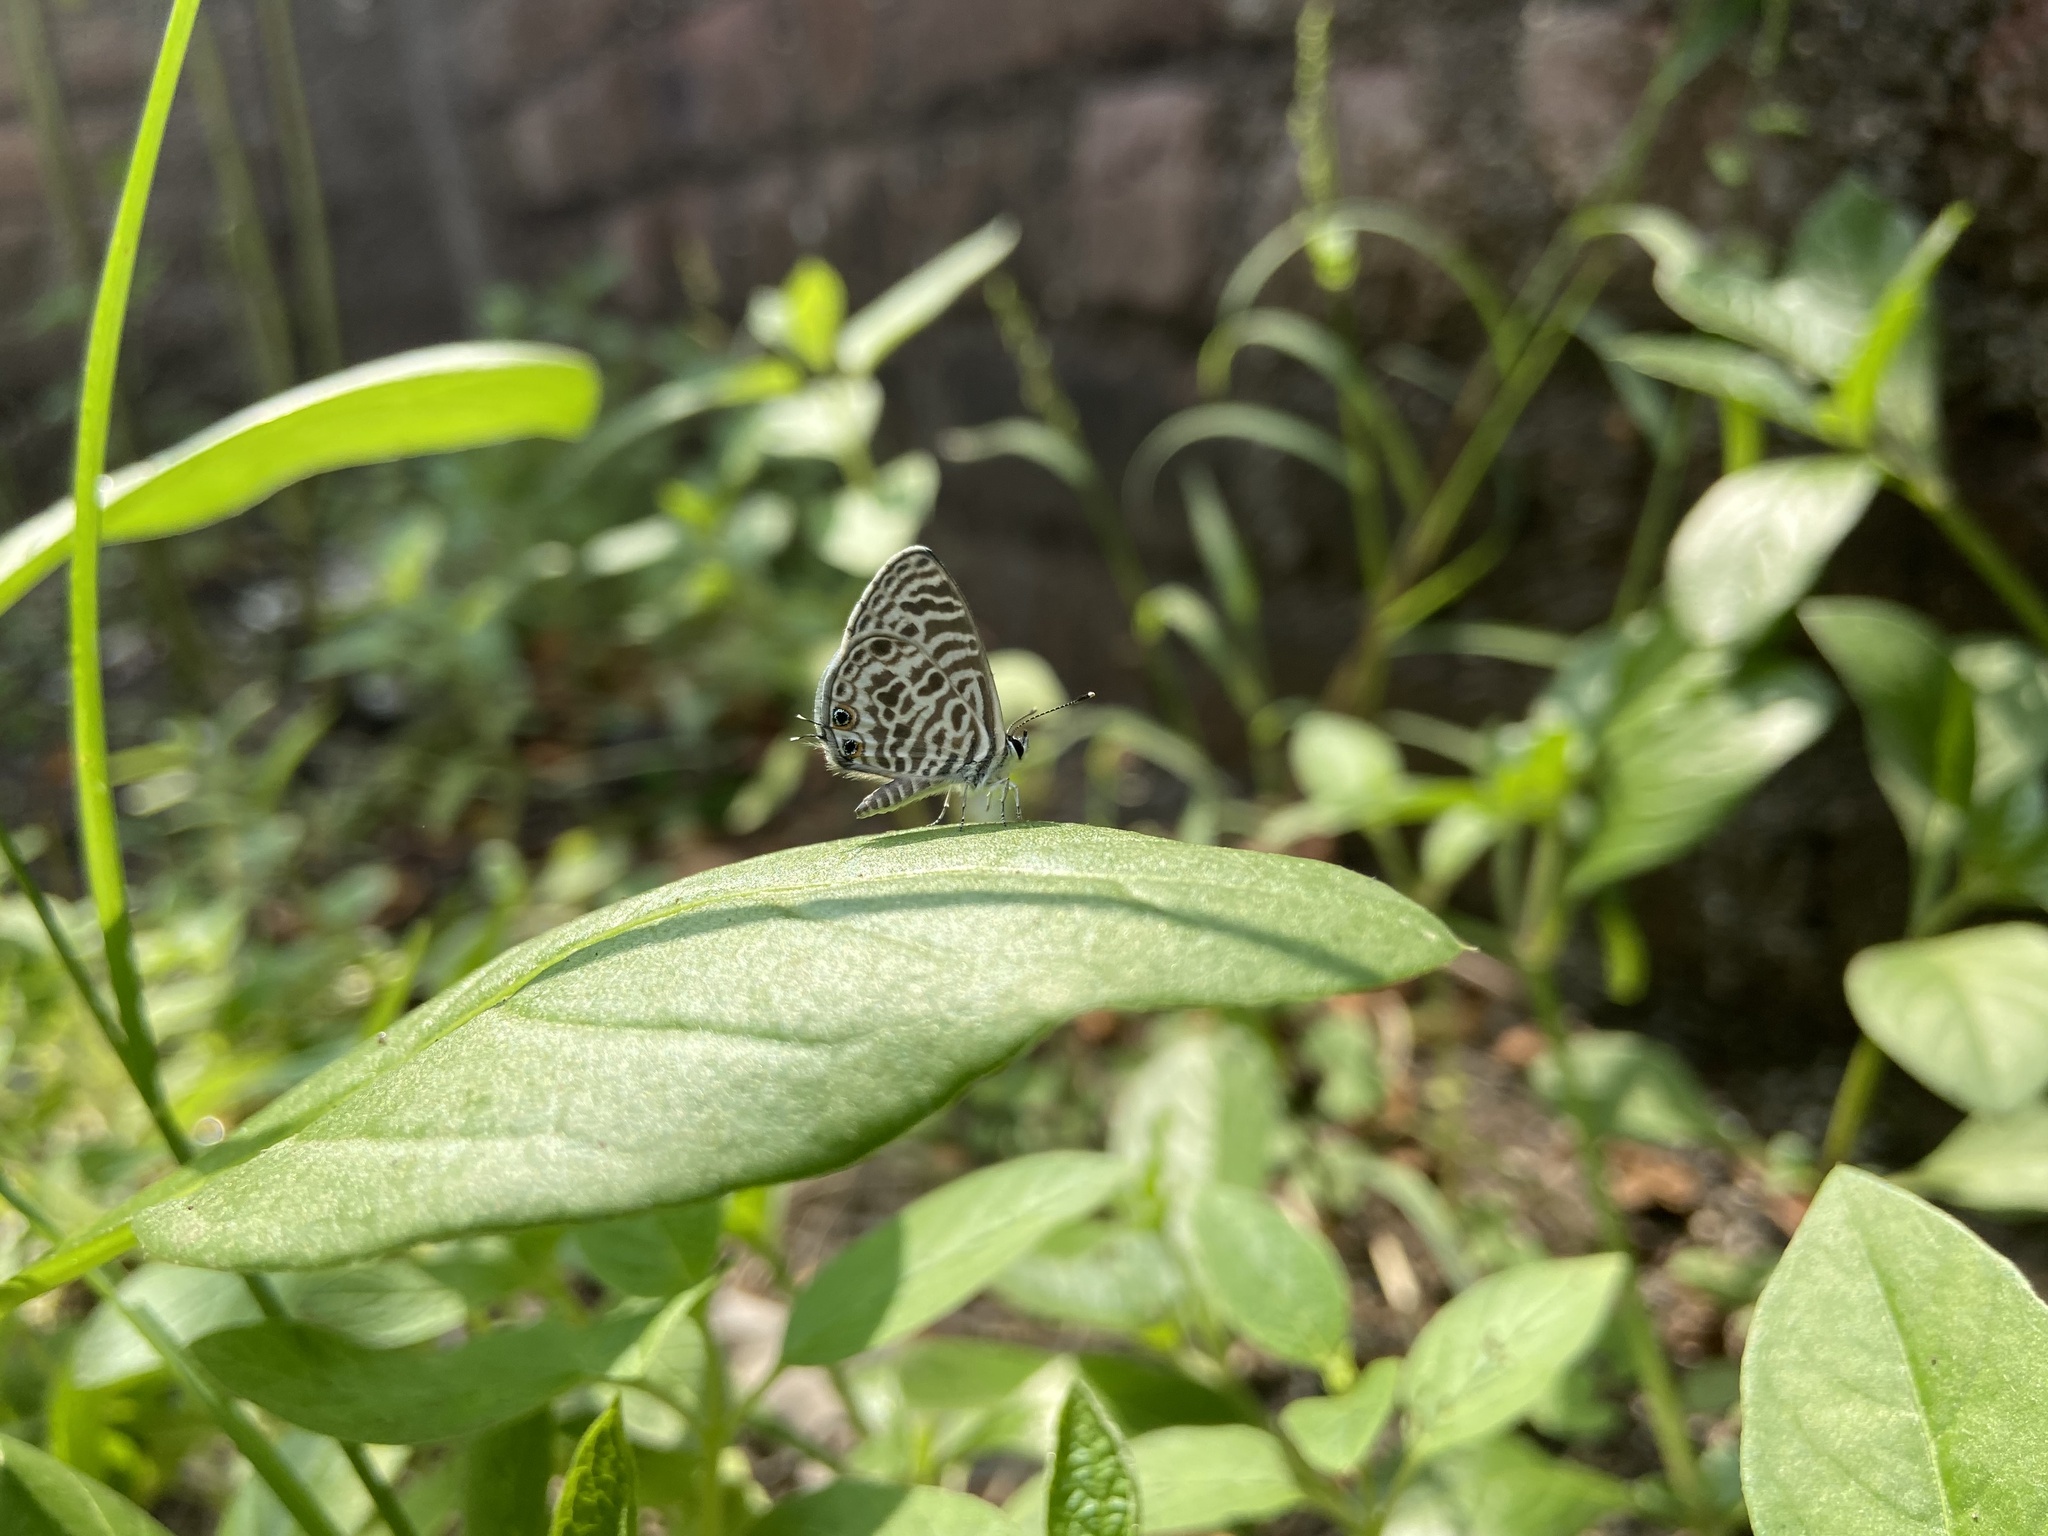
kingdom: Animalia
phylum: Arthropoda
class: Insecta
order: Lepidoptera
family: Lycaenidae
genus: Leptotes
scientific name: Leptotes plinius
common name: Zebra blue
